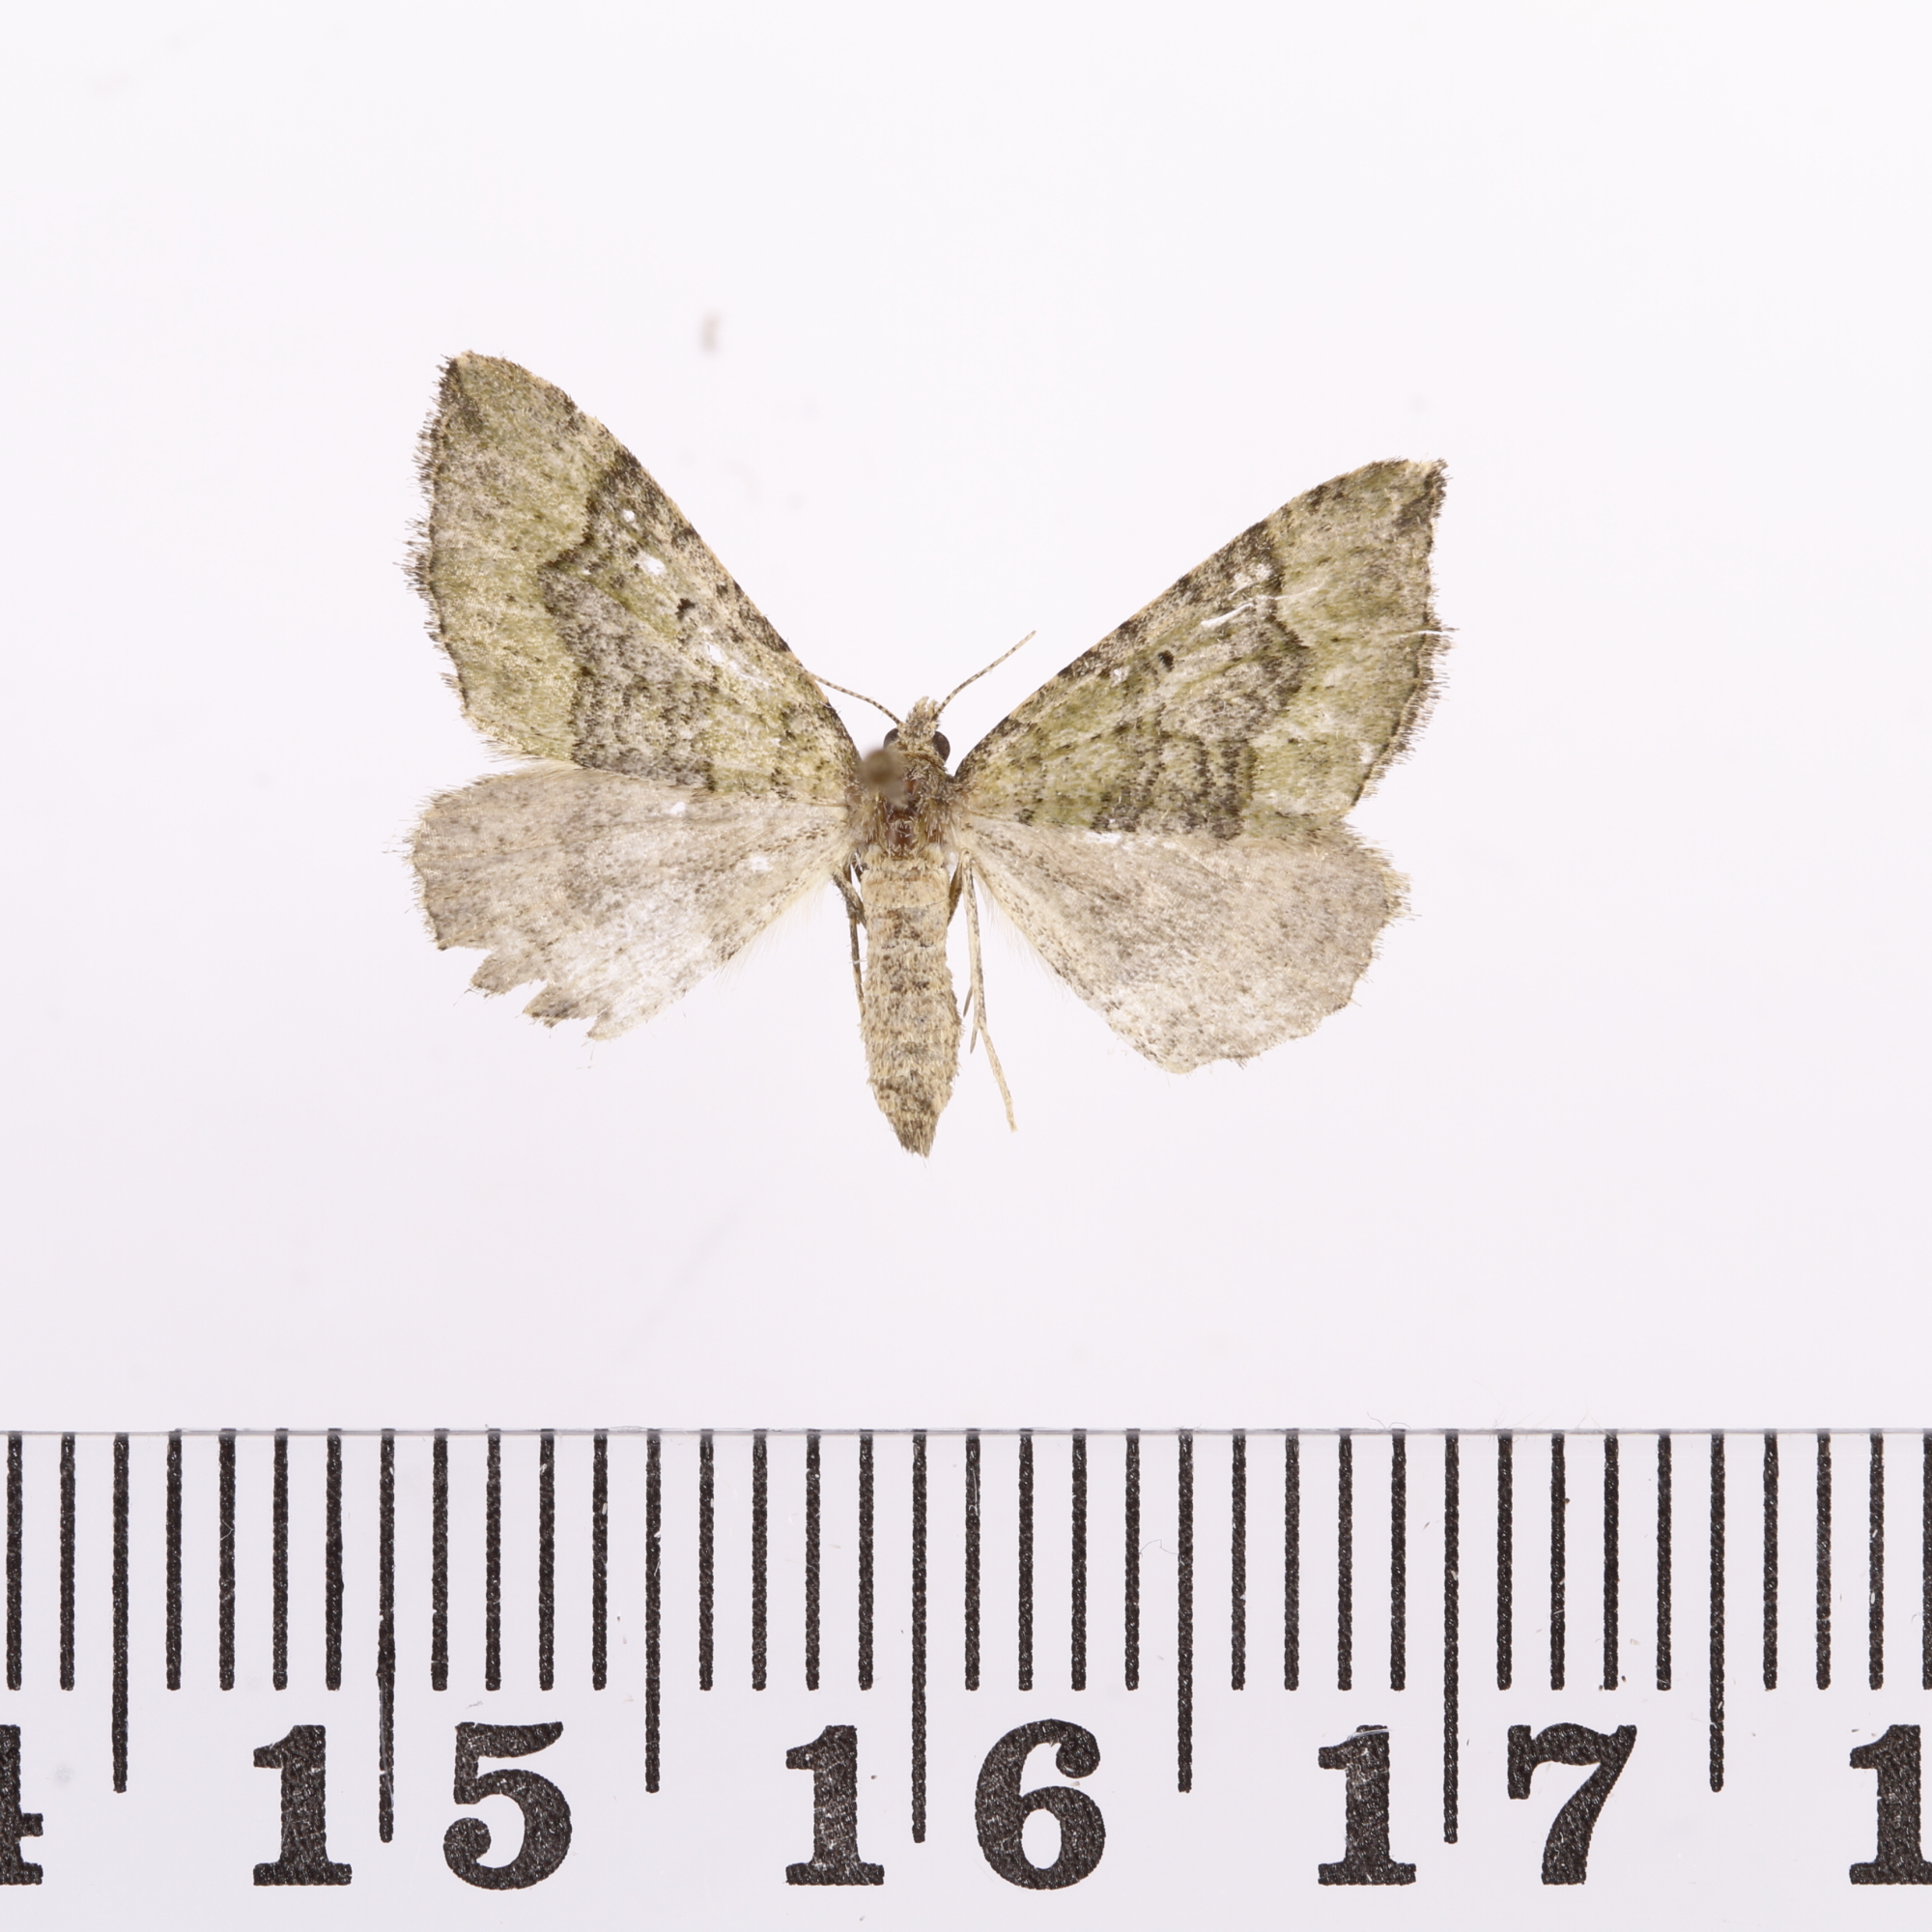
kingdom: Animalia
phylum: Arthropoda
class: Insecta
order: Lepidoptera
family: Geometridae
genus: Epyaxa
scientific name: Epyaxa rosearia
